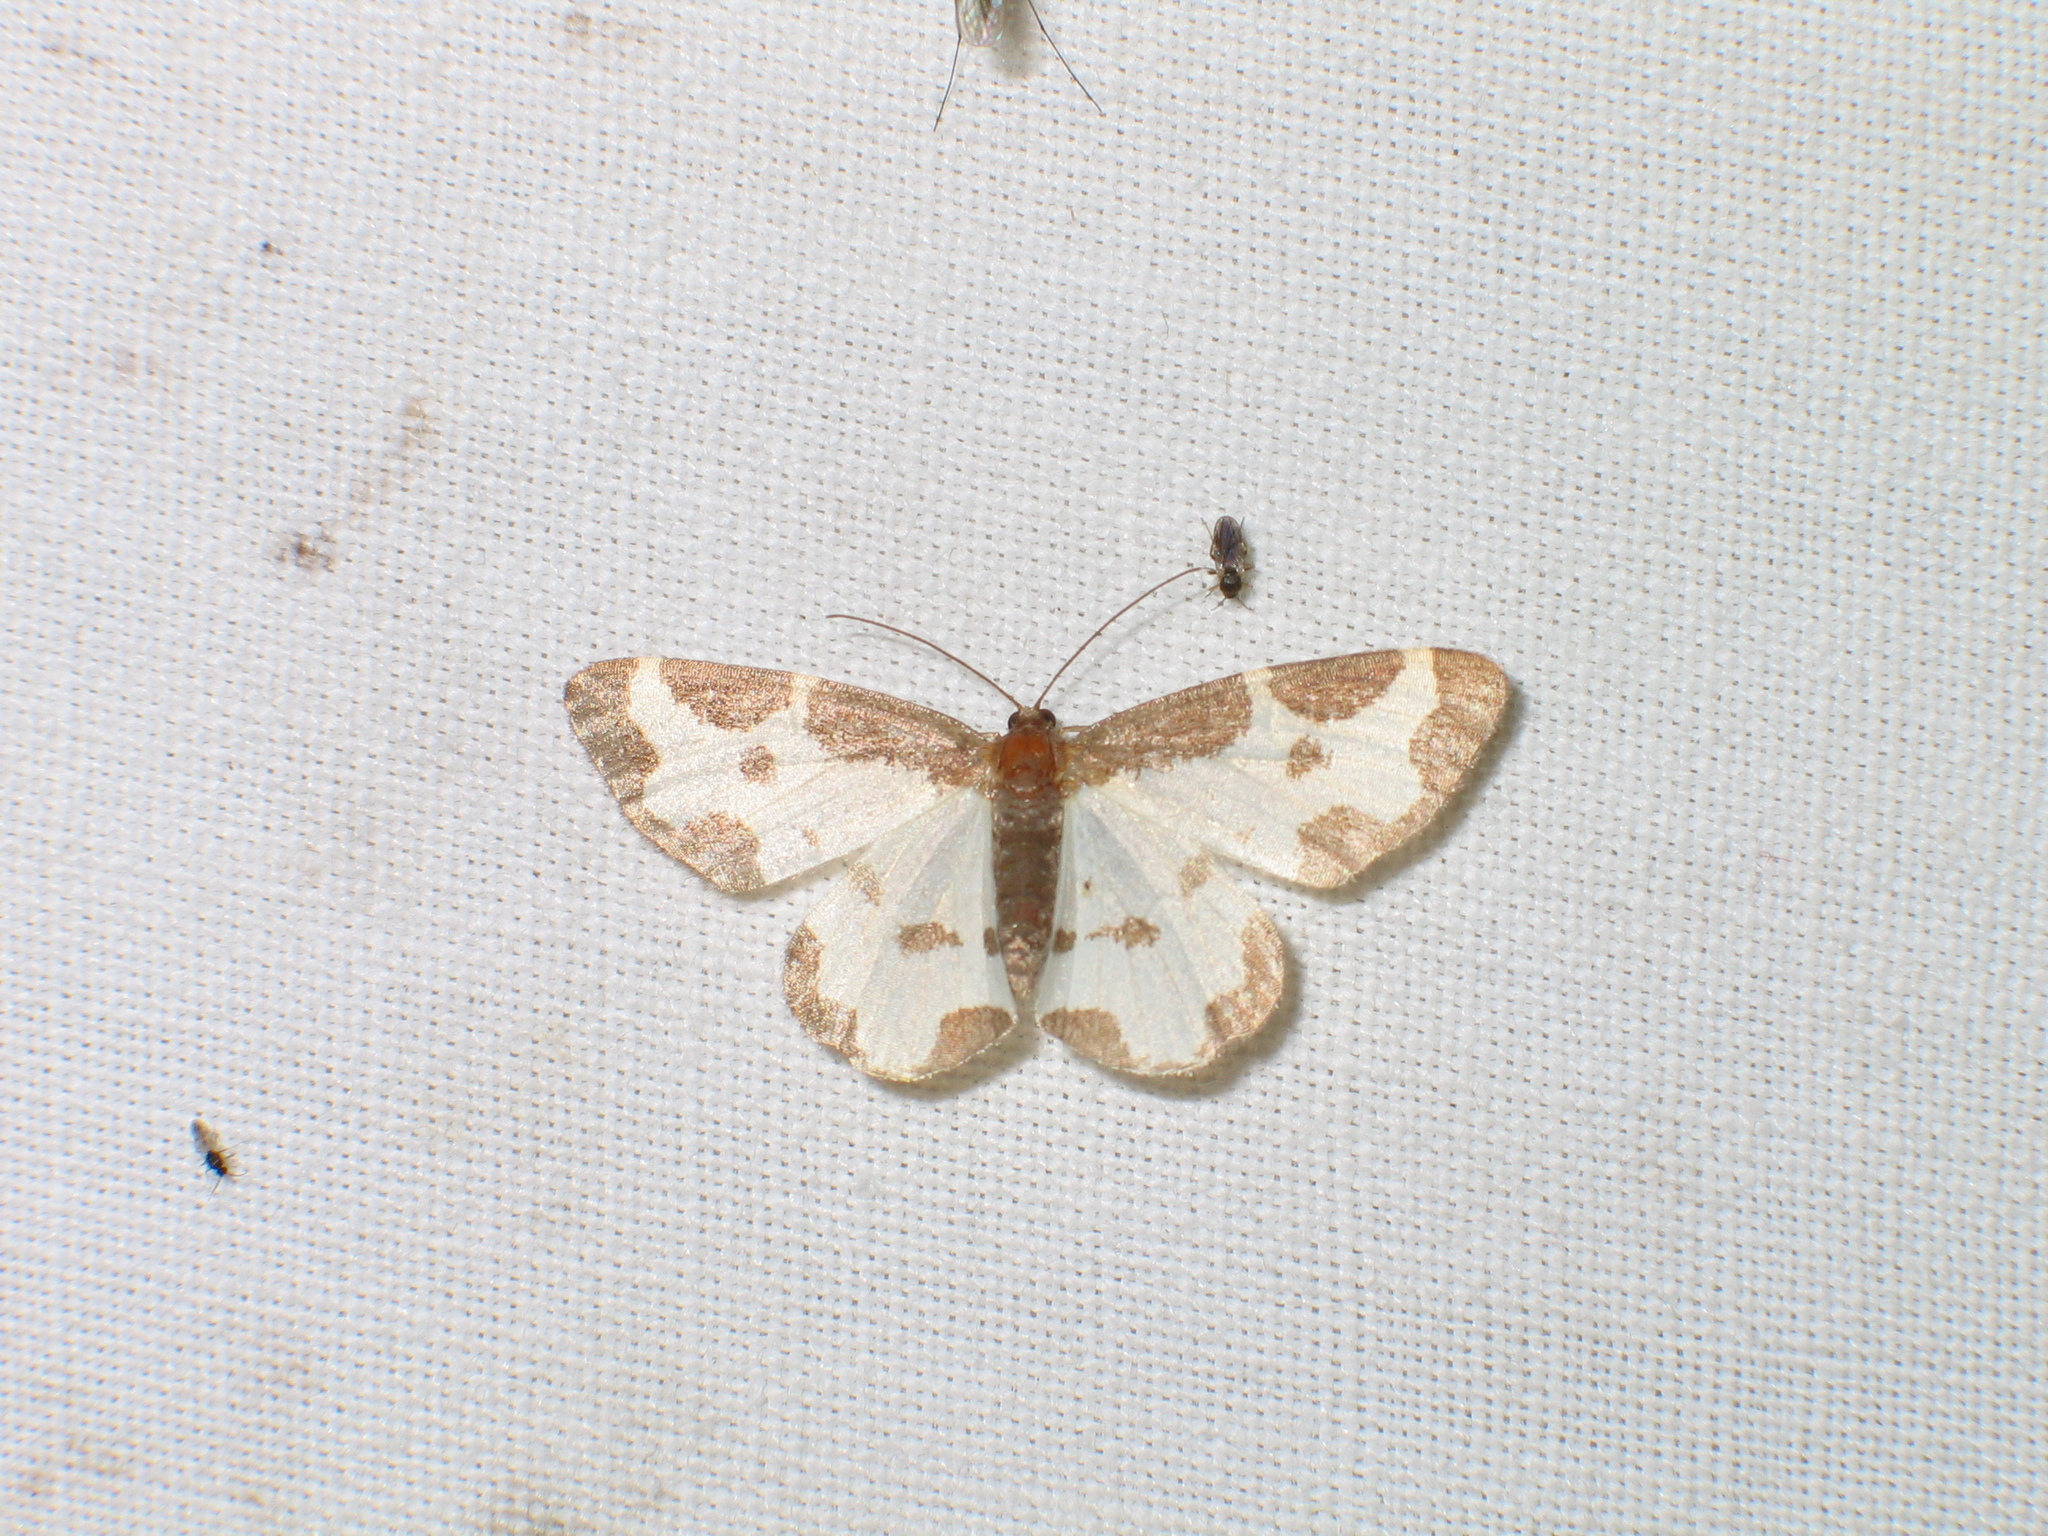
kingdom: Animalia
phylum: Arthropoda
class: Insecta
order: Lepidoptera
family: Geometridae
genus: Lomaspilis
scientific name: Lomaspilis marginata
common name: Clouded border
